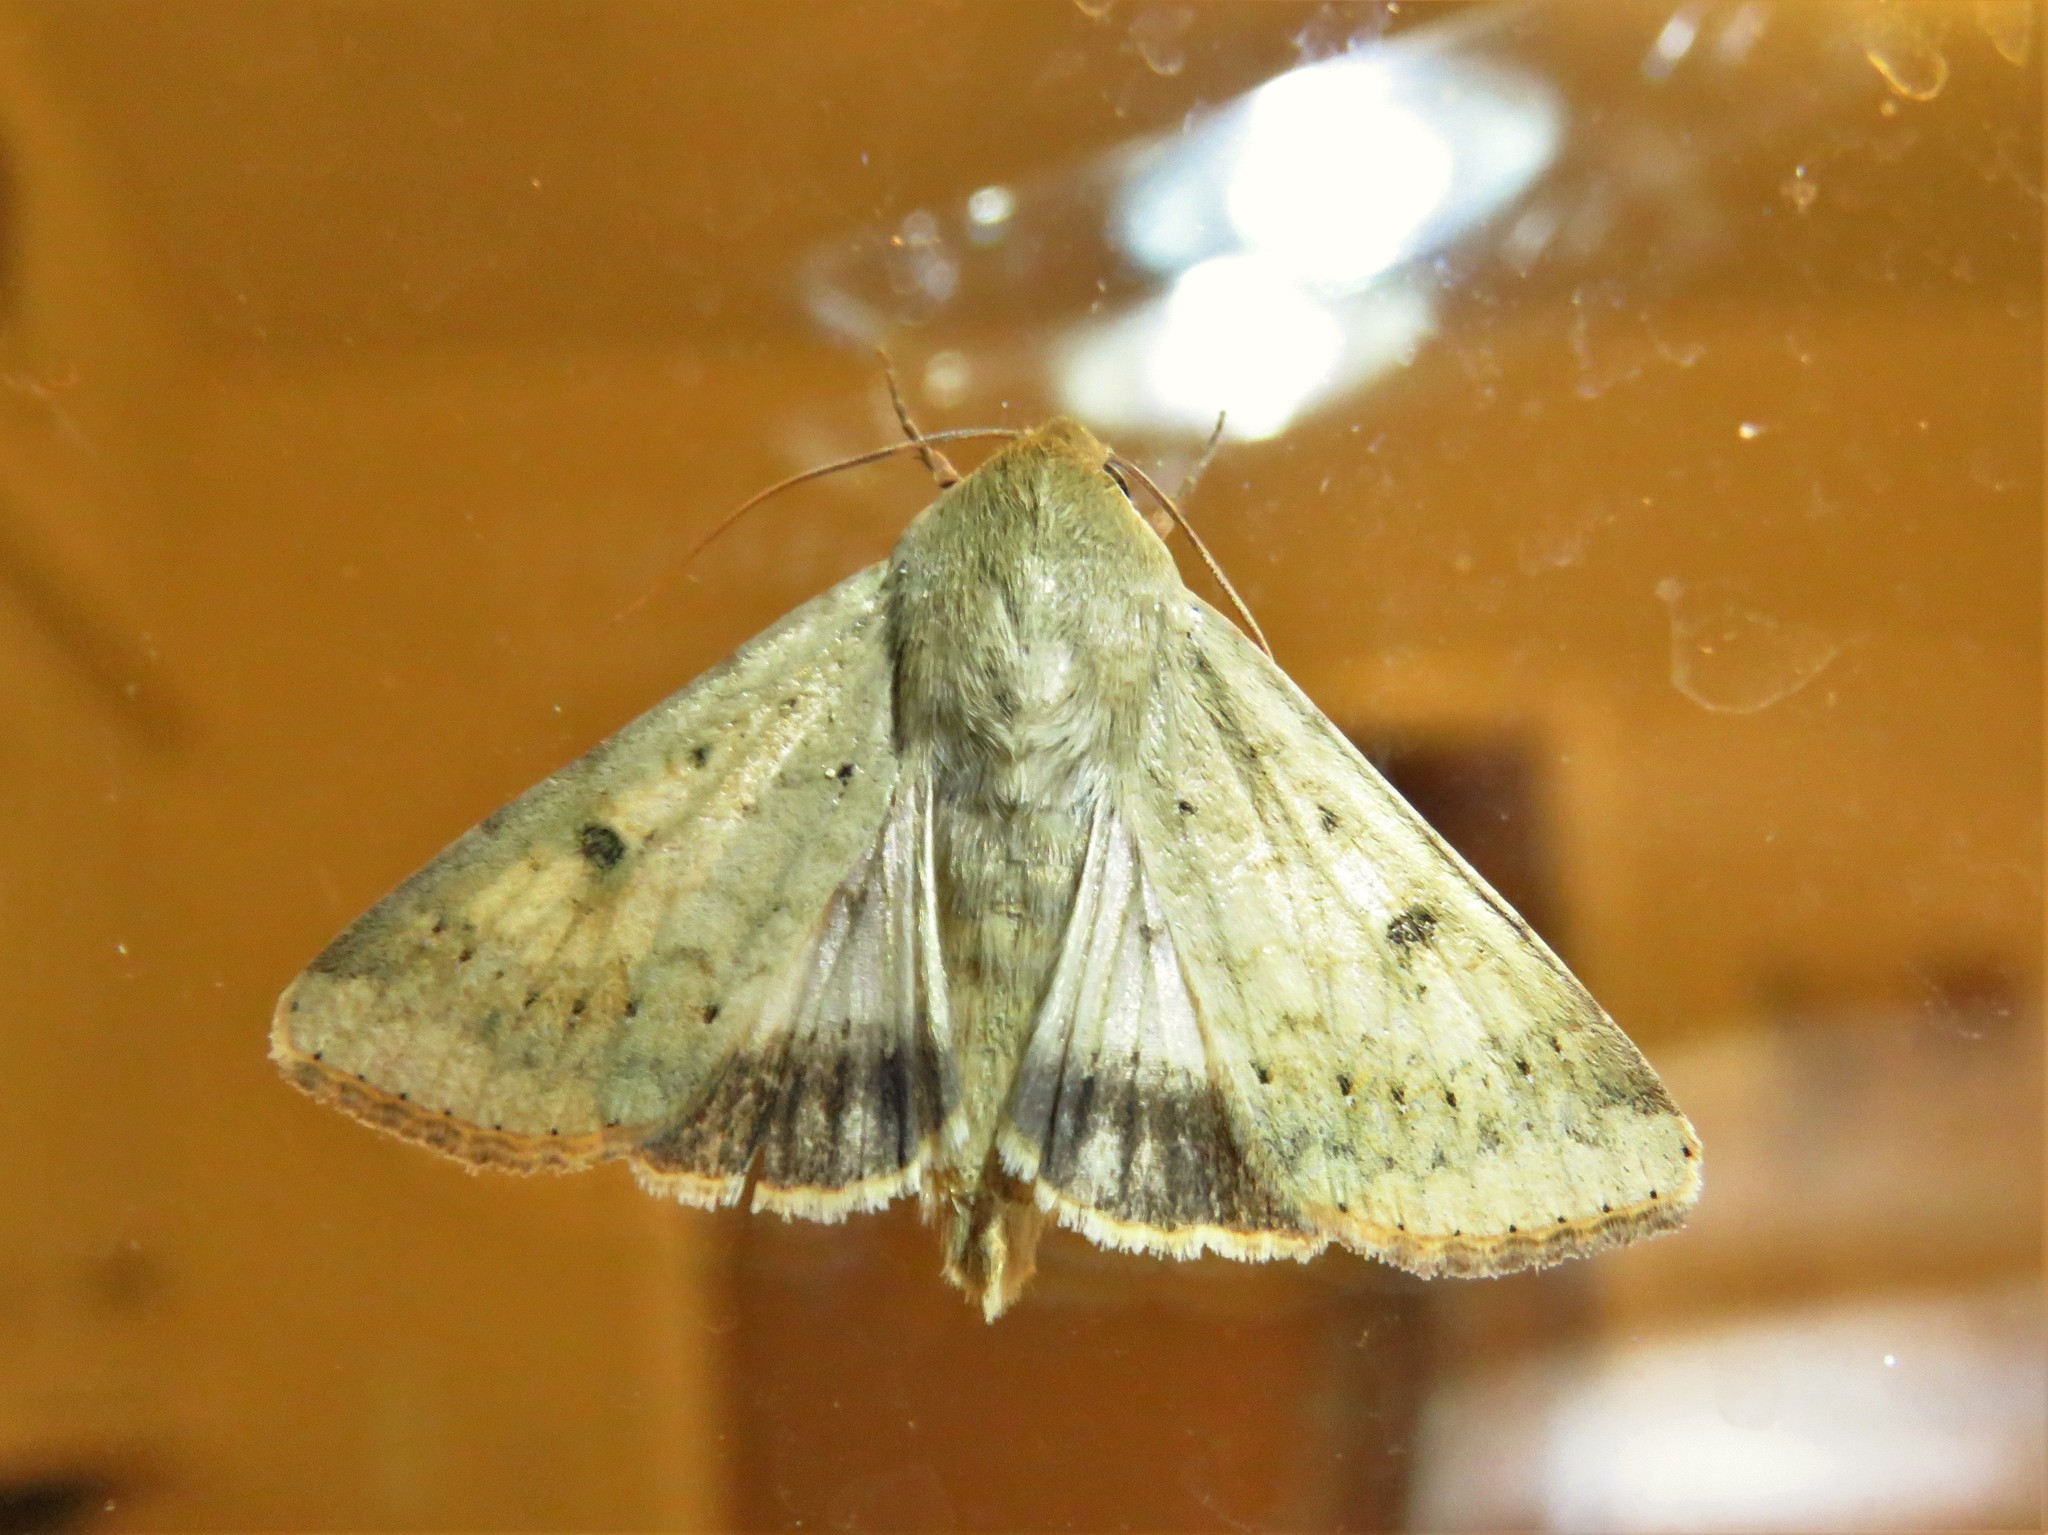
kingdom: Animalia
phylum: Arthropoda
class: Insecta
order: Lepidoptera
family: Noctuidae
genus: Helicoverpa
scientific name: Helicoverpa zea
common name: Bollworm
